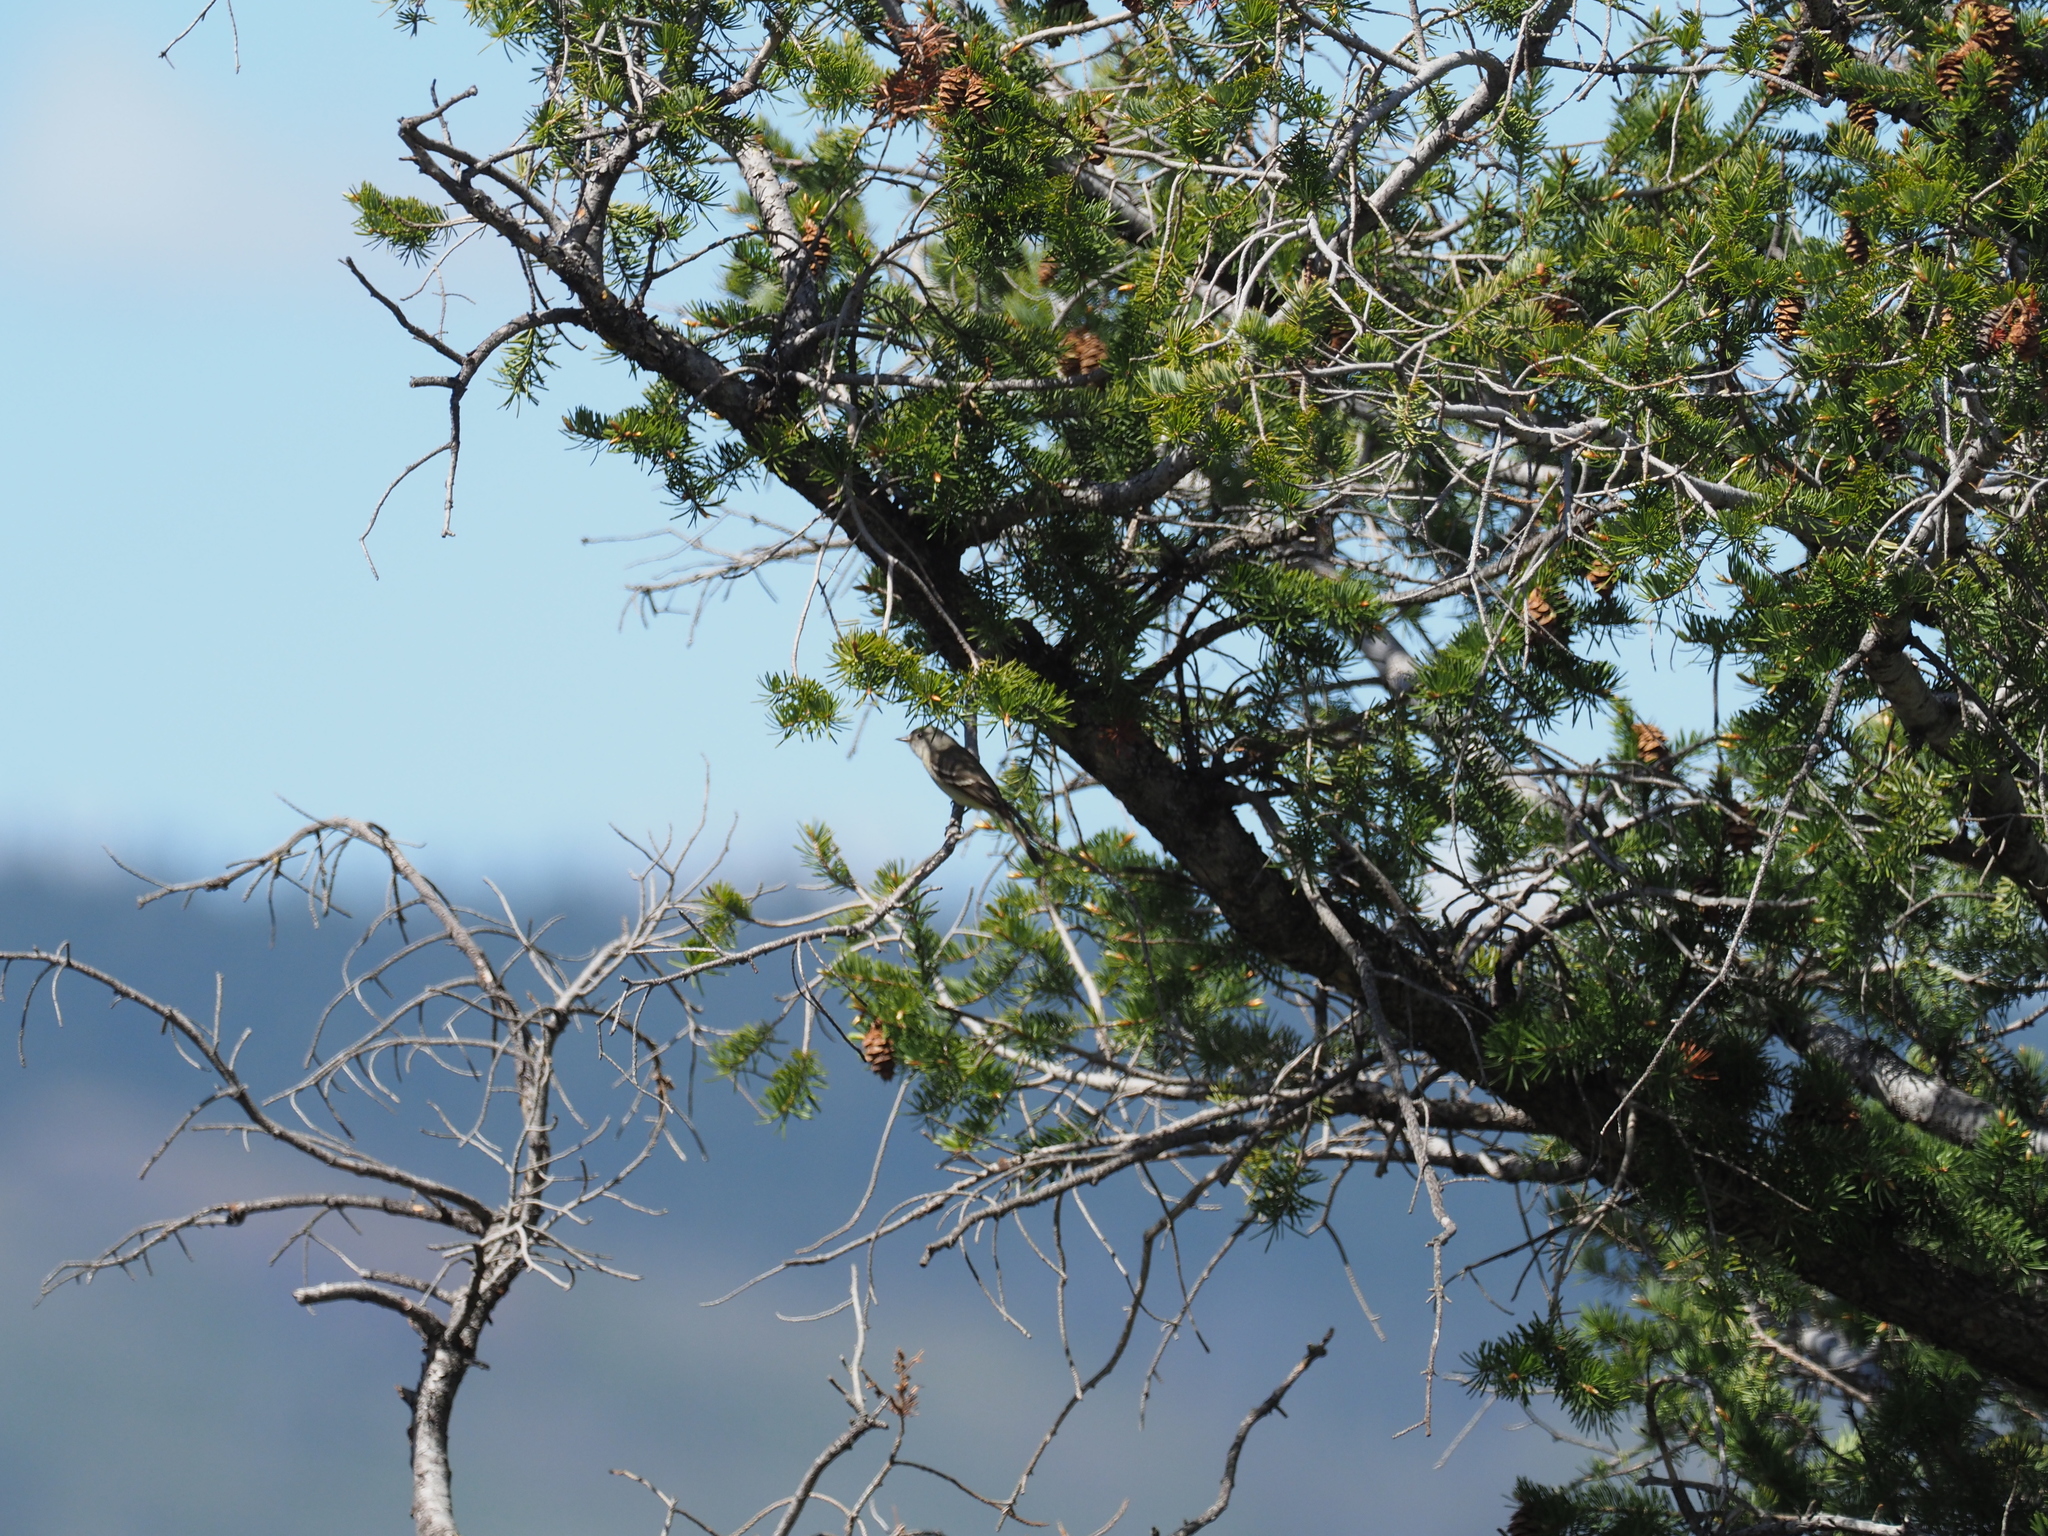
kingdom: Animalia
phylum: Chordata
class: Aves
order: Passeriformes
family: Tyrannidae
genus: Empidonax
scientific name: Empidonax oberholseri
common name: Dusky flycatcher
